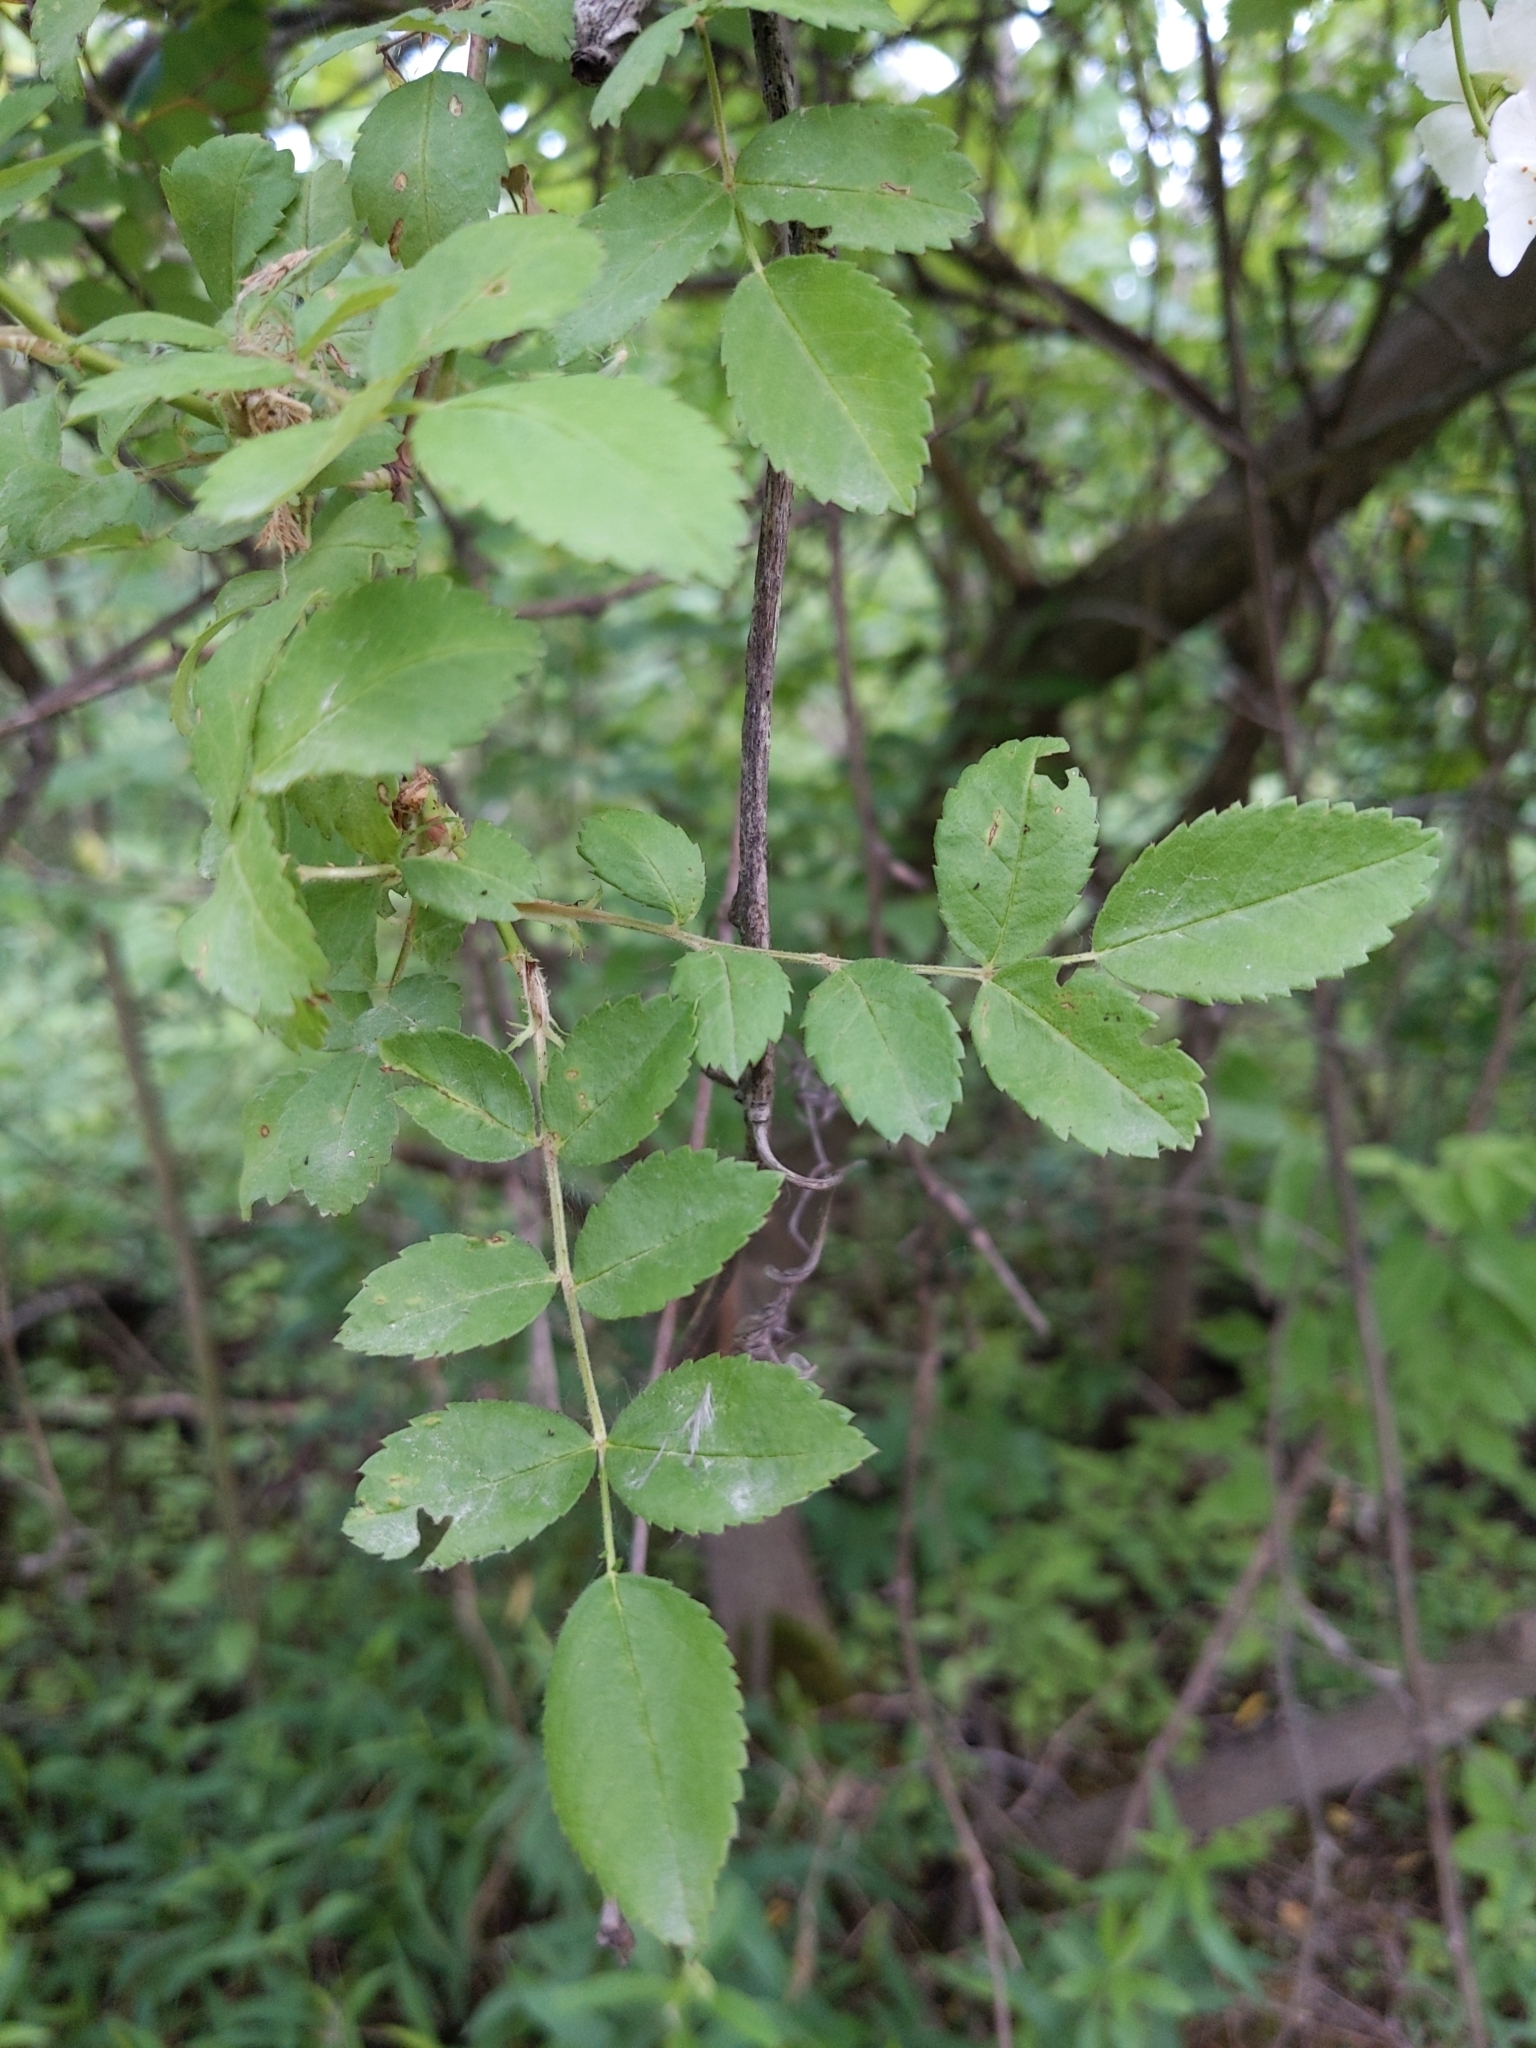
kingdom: Plantae
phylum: Tracheophyta
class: Magnoliopsida
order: Rosales
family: Rosaceae
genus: Rosa
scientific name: Rosa multiflora
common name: Multiflora rose
